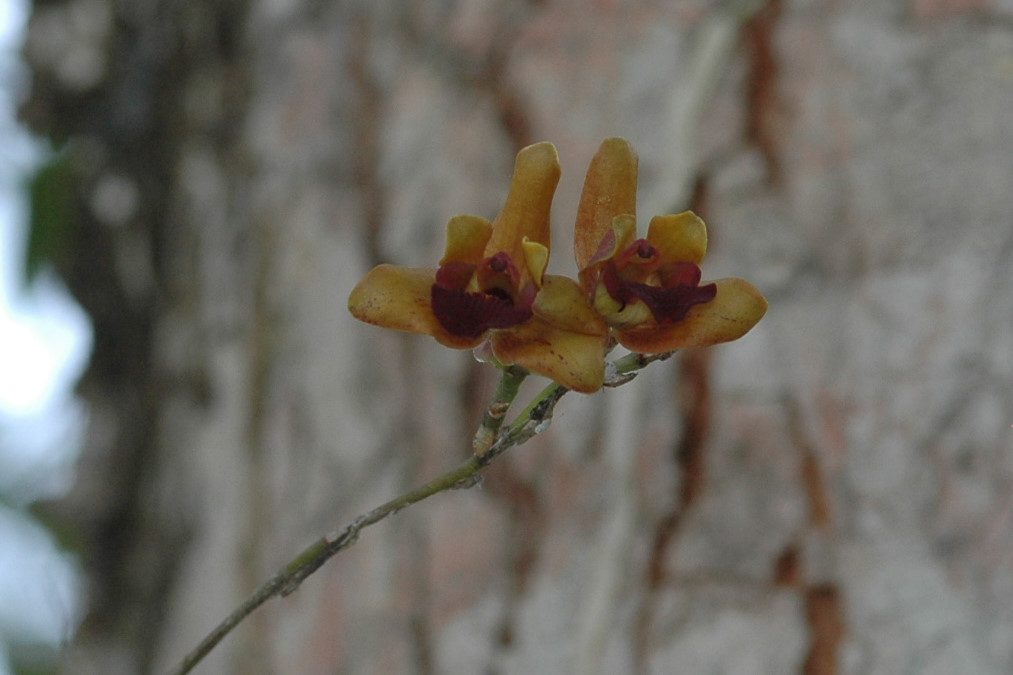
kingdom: Plantae
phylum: Tracheophyta
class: Liliopsida
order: Asparagales
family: Orchidaceae
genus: Psychilis
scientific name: Psychilis olivacea
